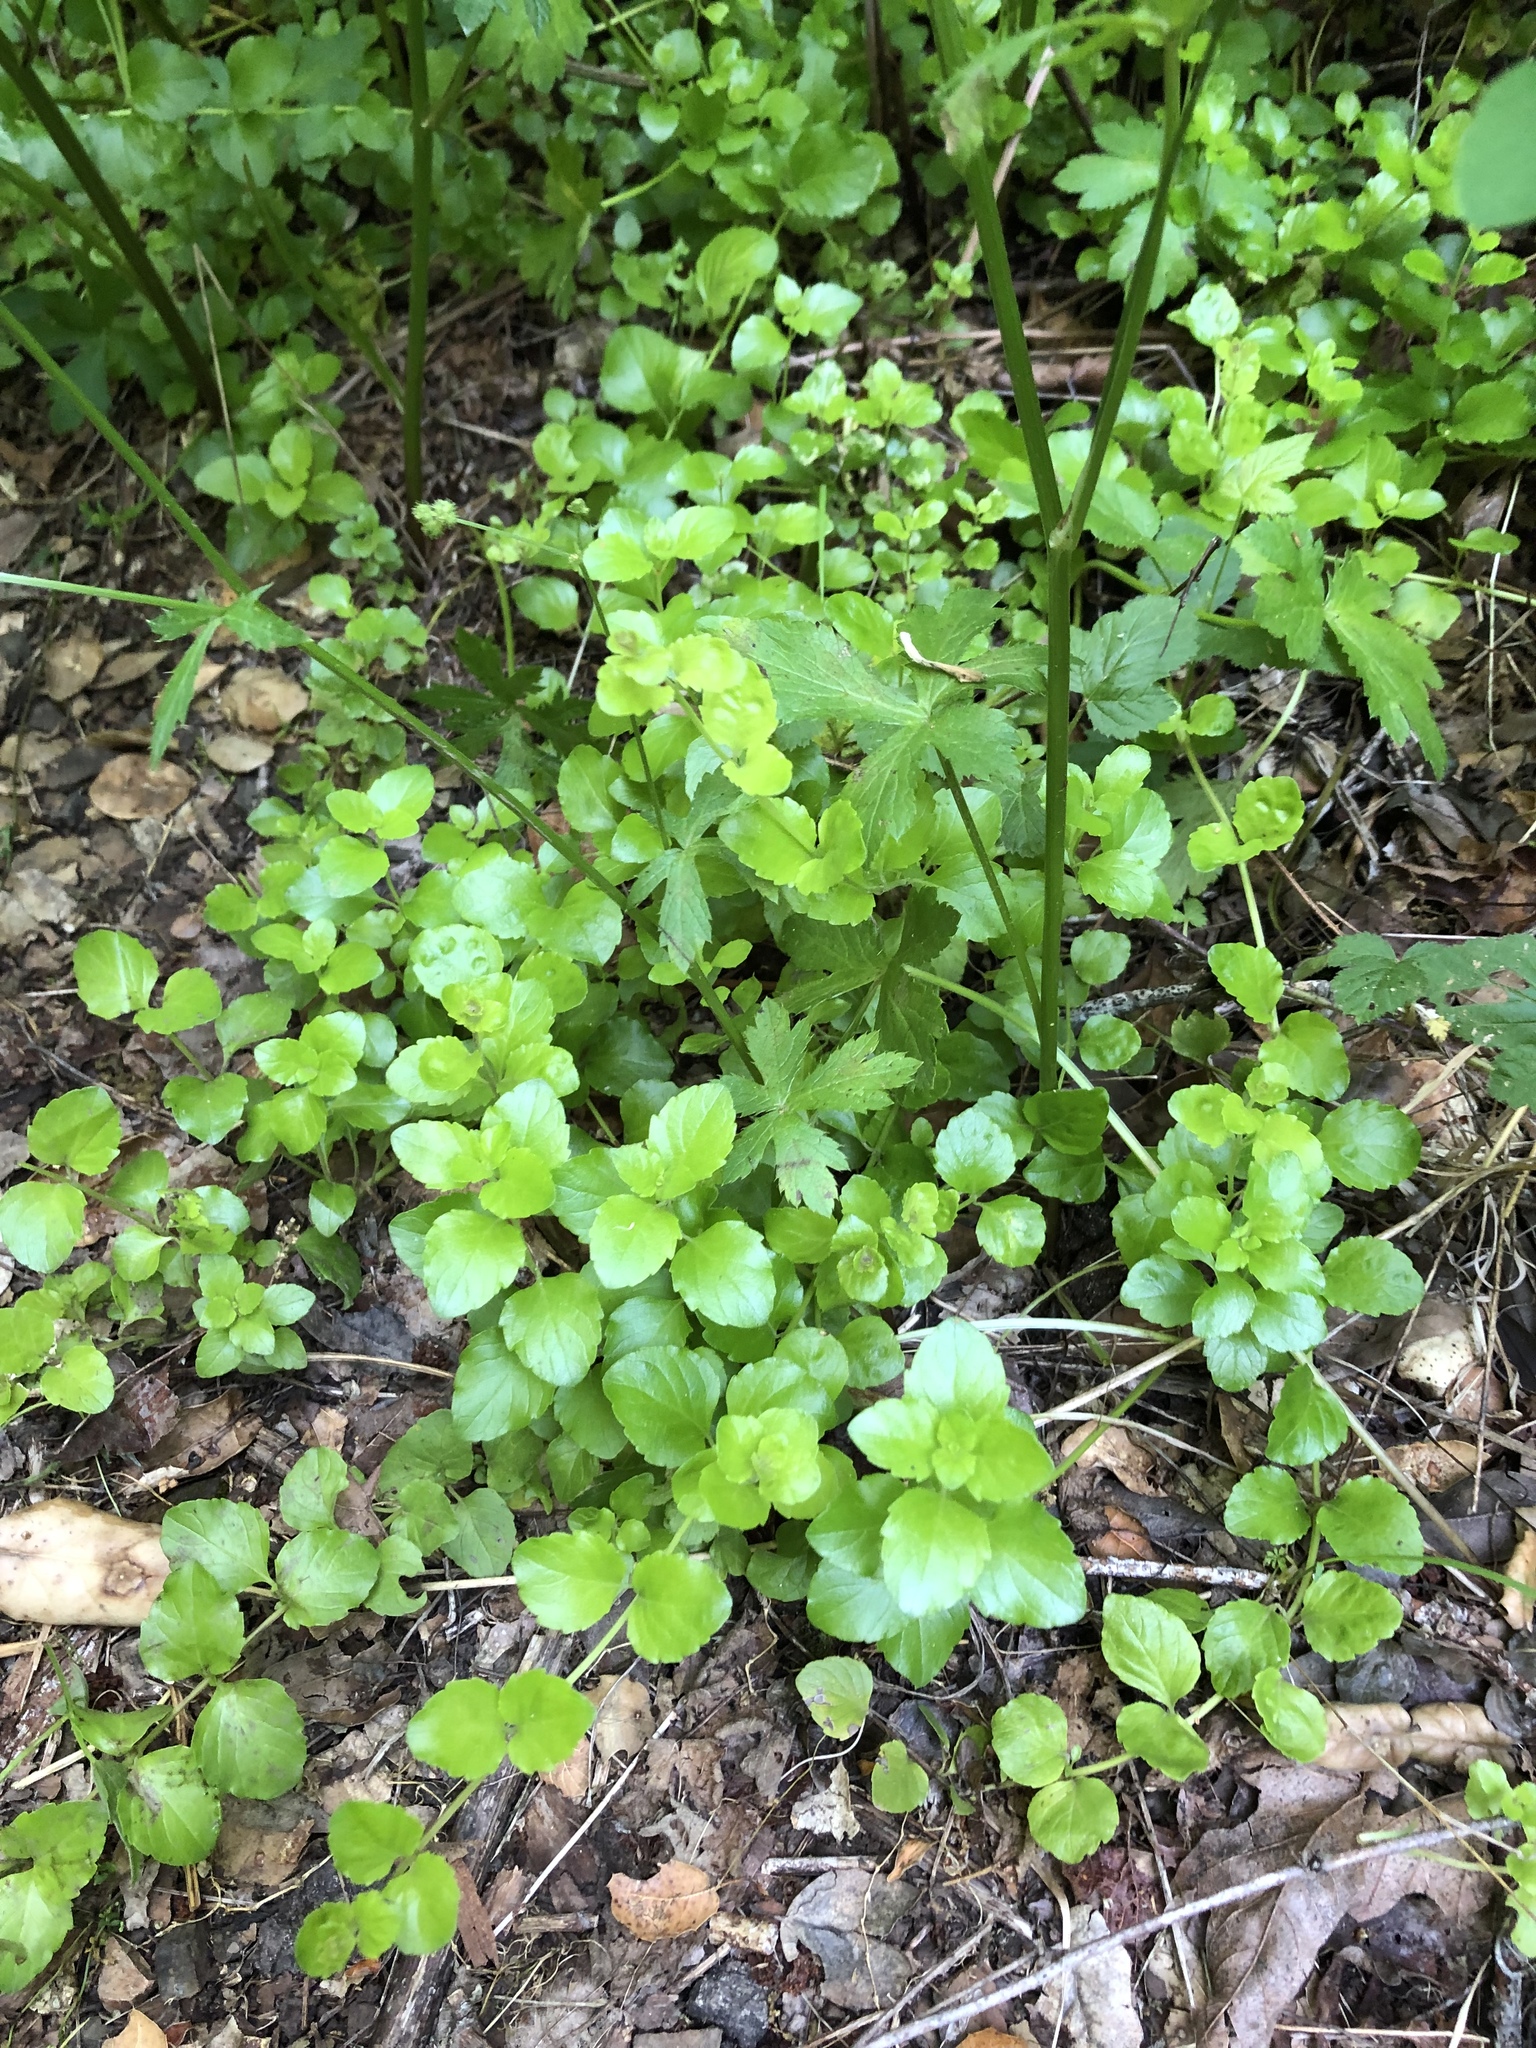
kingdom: Plantae
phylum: Tracheophyta
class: Magnoliopsida
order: Lamiales
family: Lamiaceae
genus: Micromeria
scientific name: Micromeria douglasii
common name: Yerba buena
